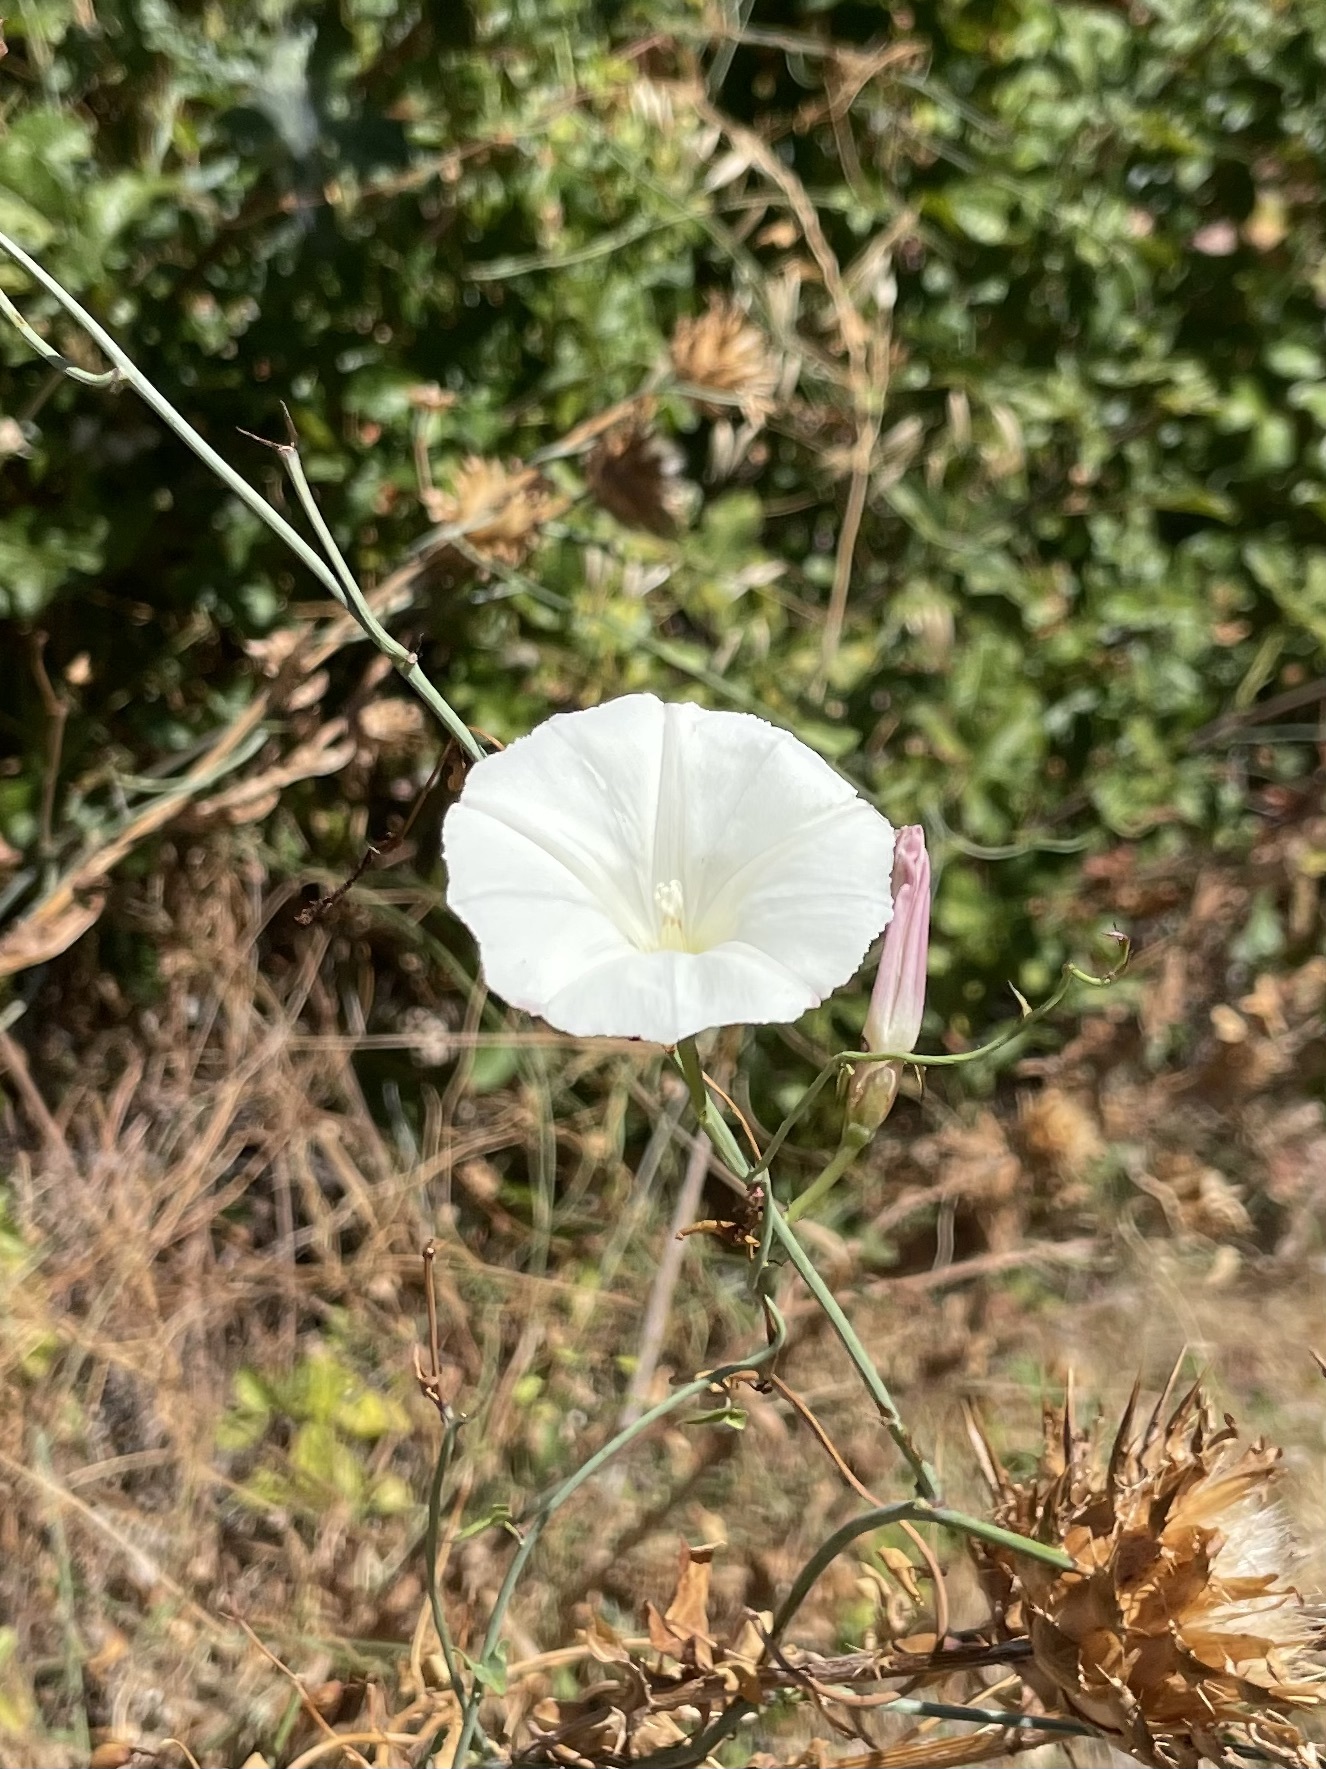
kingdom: Plantae
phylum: Tracheophyta
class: Magnoliopsida
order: Solanales
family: Convolvulaceae
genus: Calystegia
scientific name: Calystegia purpurata
